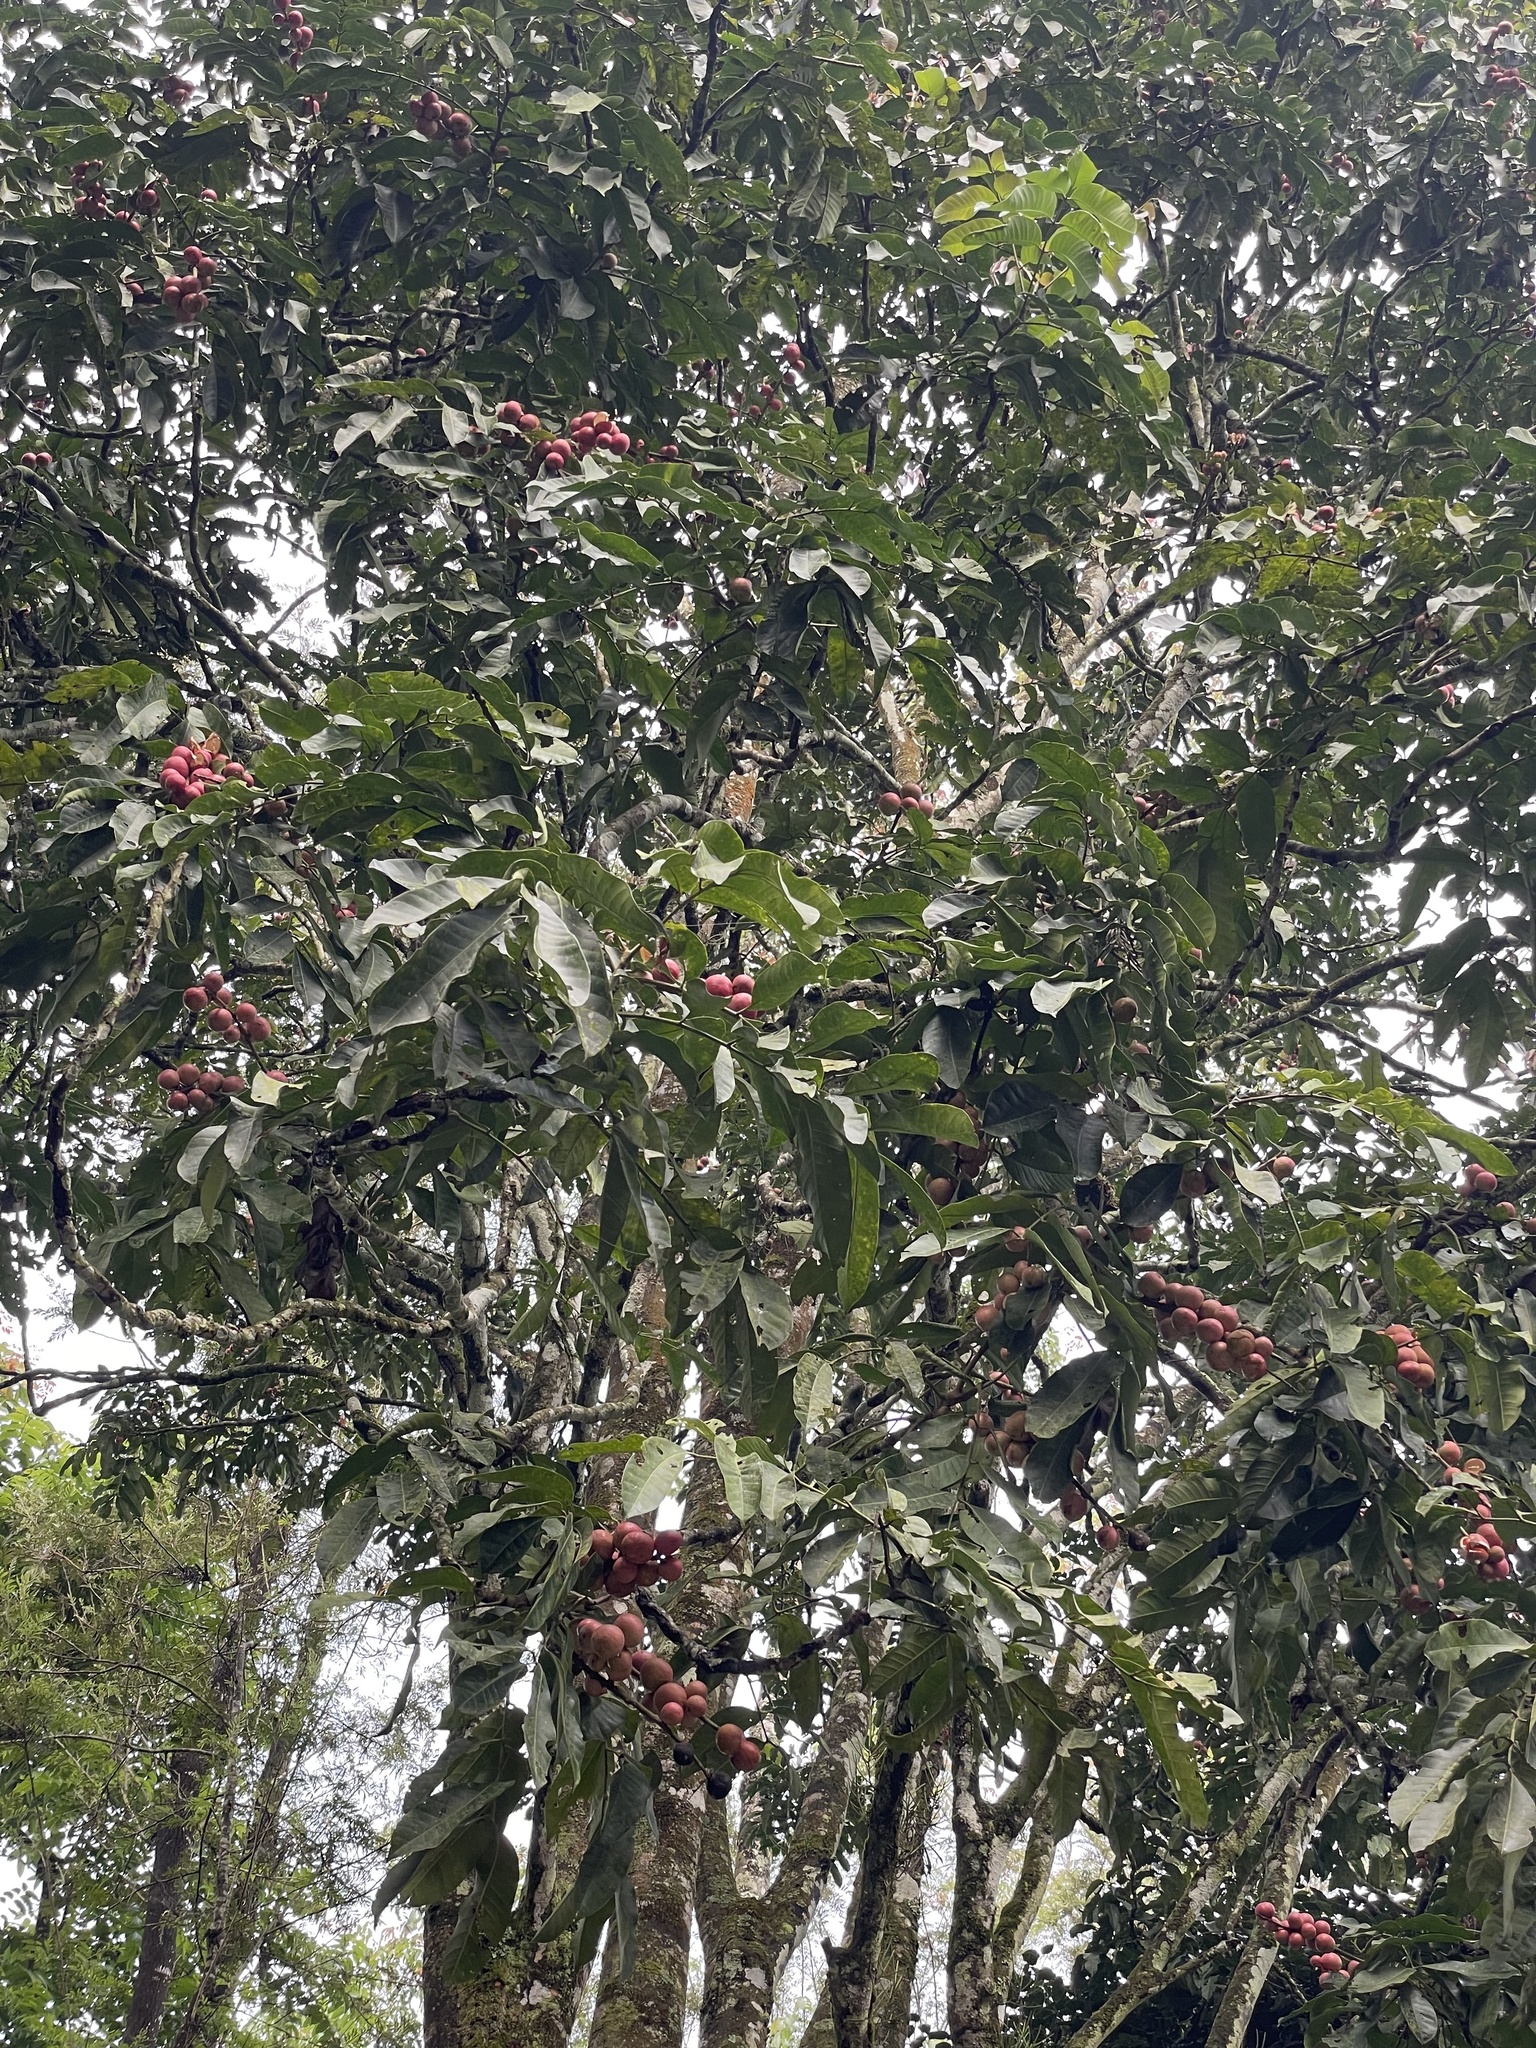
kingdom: Plantae
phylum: Tracheophyta
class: Magnoliopsida
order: Sapindales
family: Meliaceae
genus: Aphanamixis
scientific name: Aphanamixis polystachya
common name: Pithraj tree
